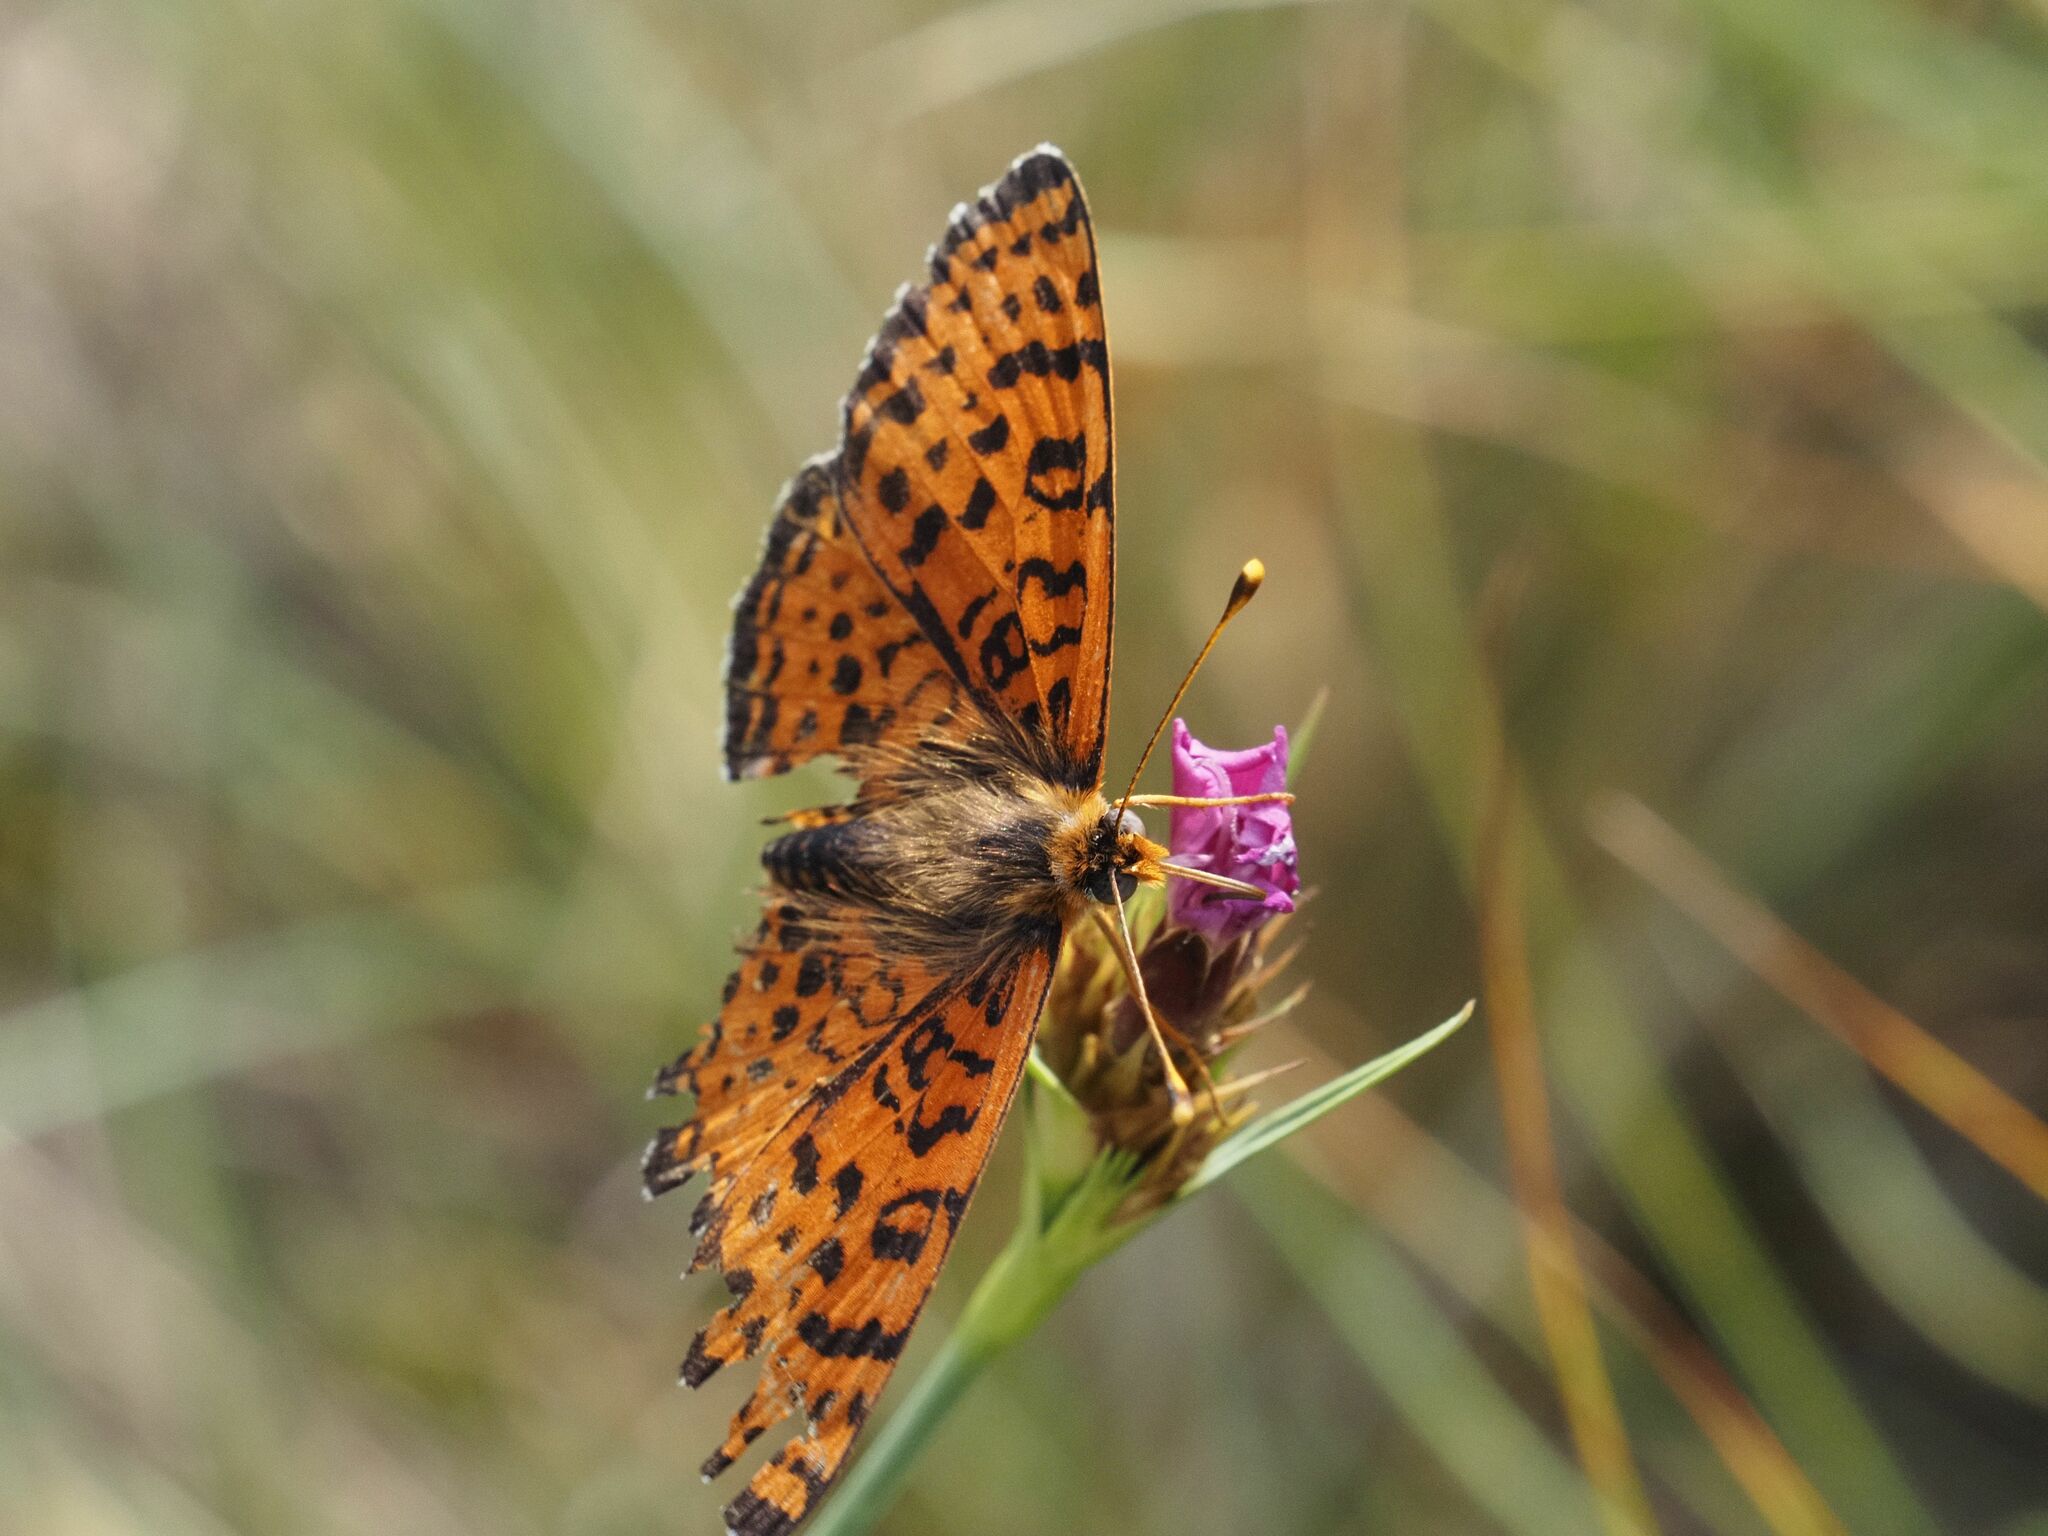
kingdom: Animalia
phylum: Arthropoda
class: Insecta
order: Lepidoptera
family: Nymphalidae
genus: Melitaea
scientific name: Melitaea didyma
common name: Spotted fritillary
